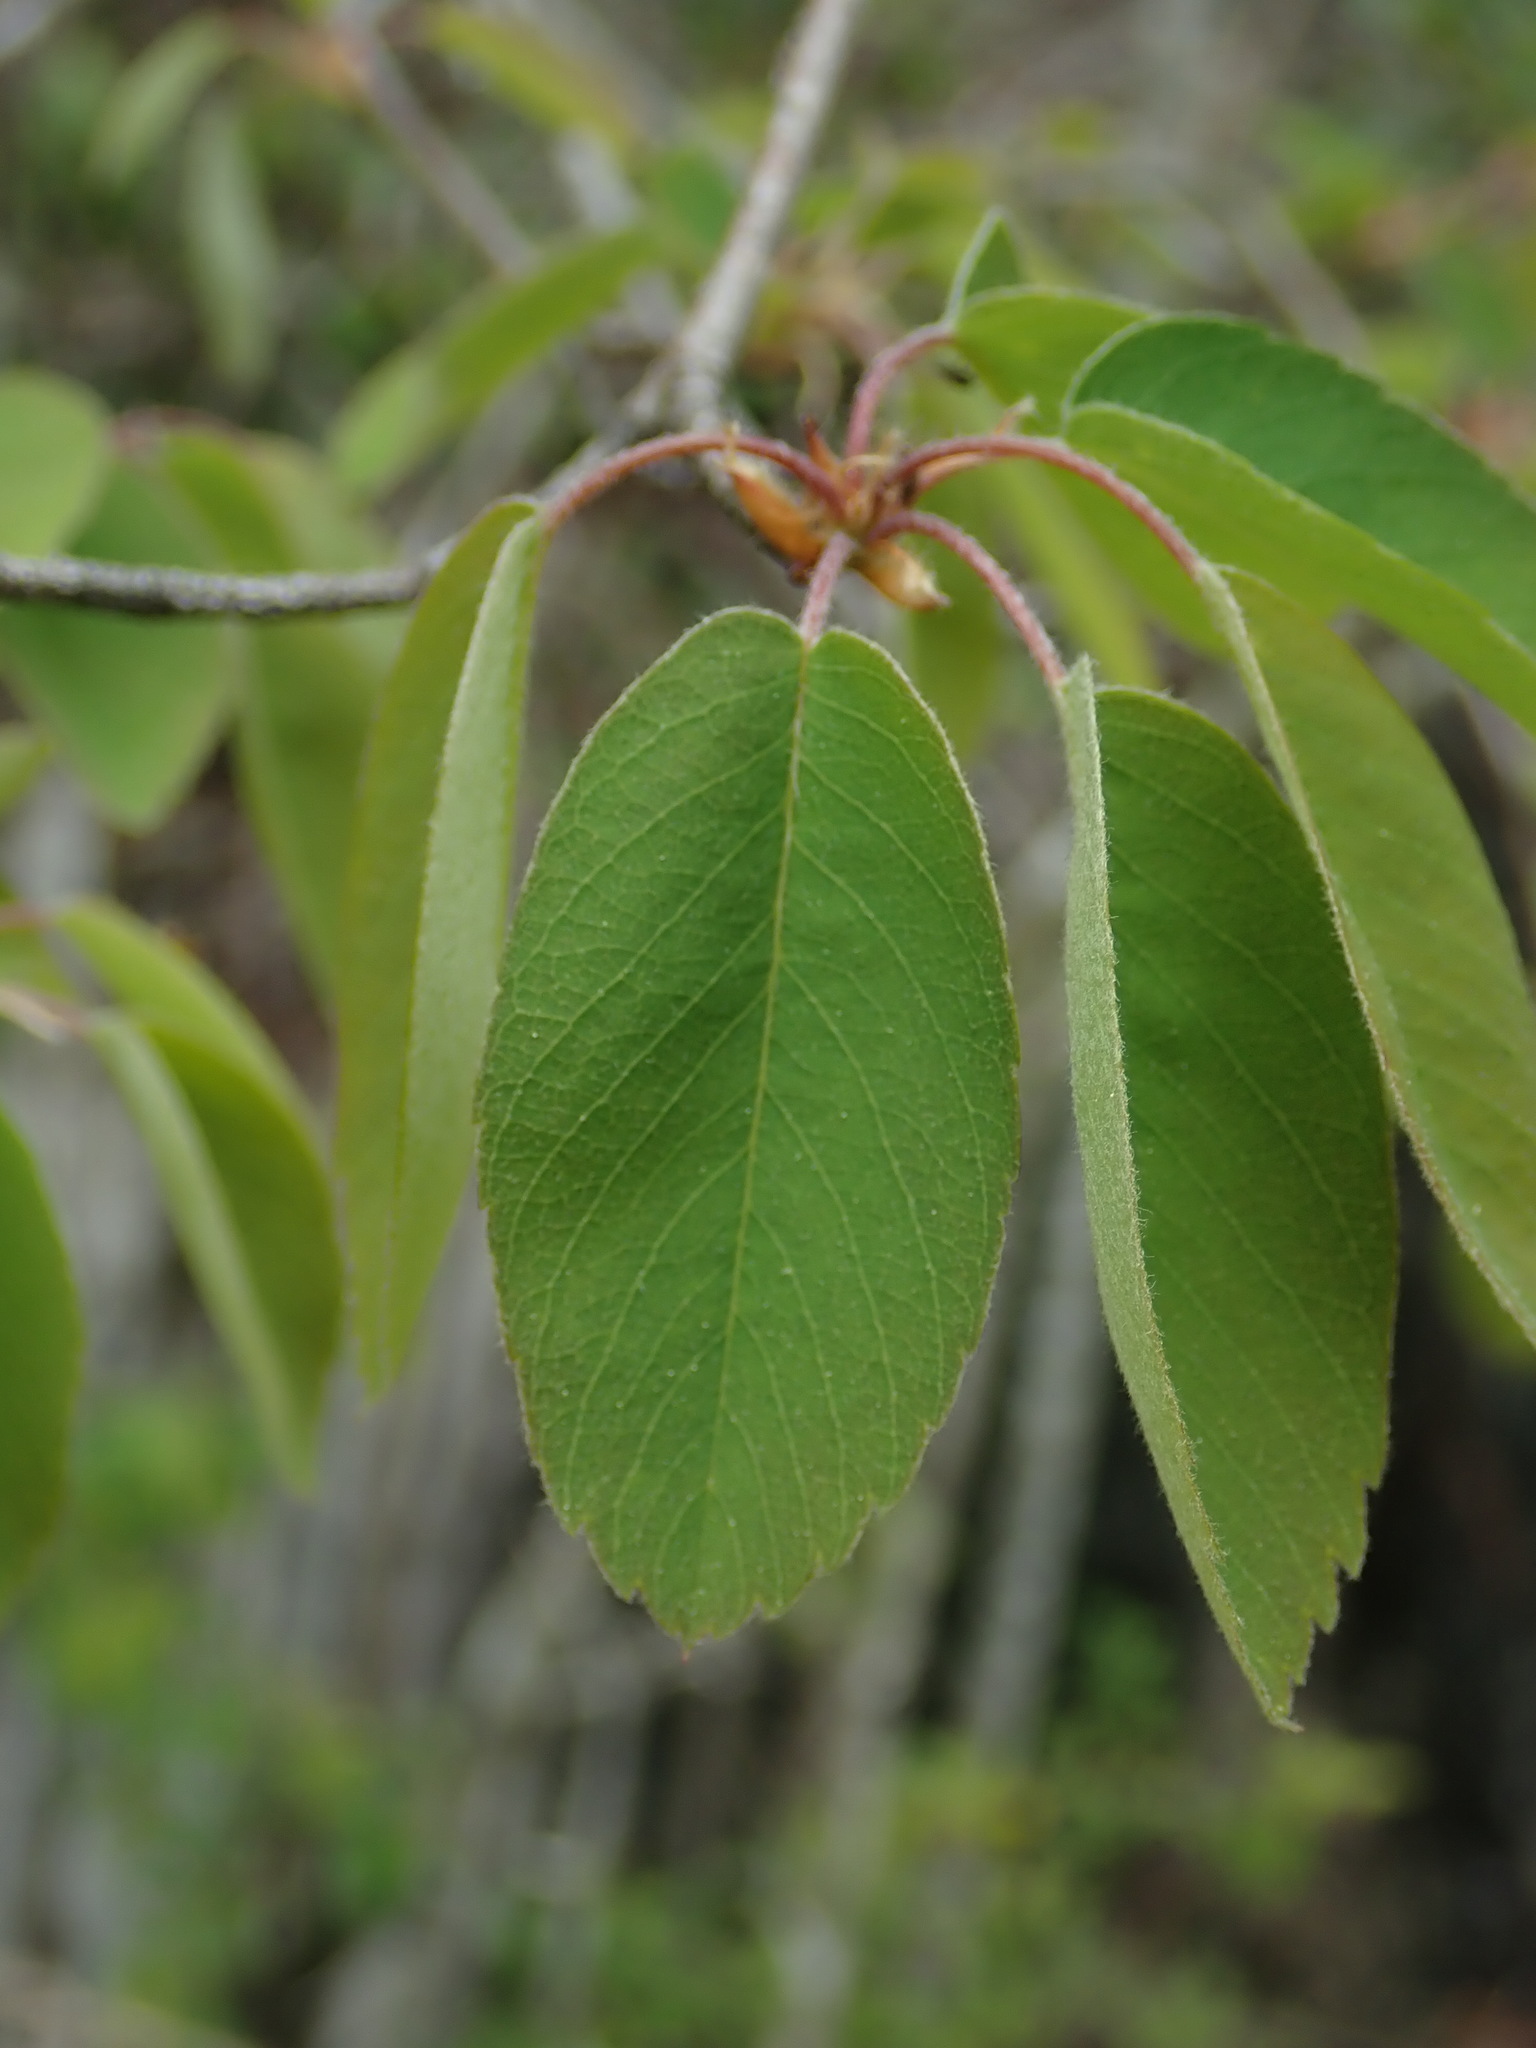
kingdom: Plantae
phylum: Tracheophyta
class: Magnoliopsida
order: Rosales
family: Rosaceae
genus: Amelanchier
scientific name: Amelanchier alnifolia
